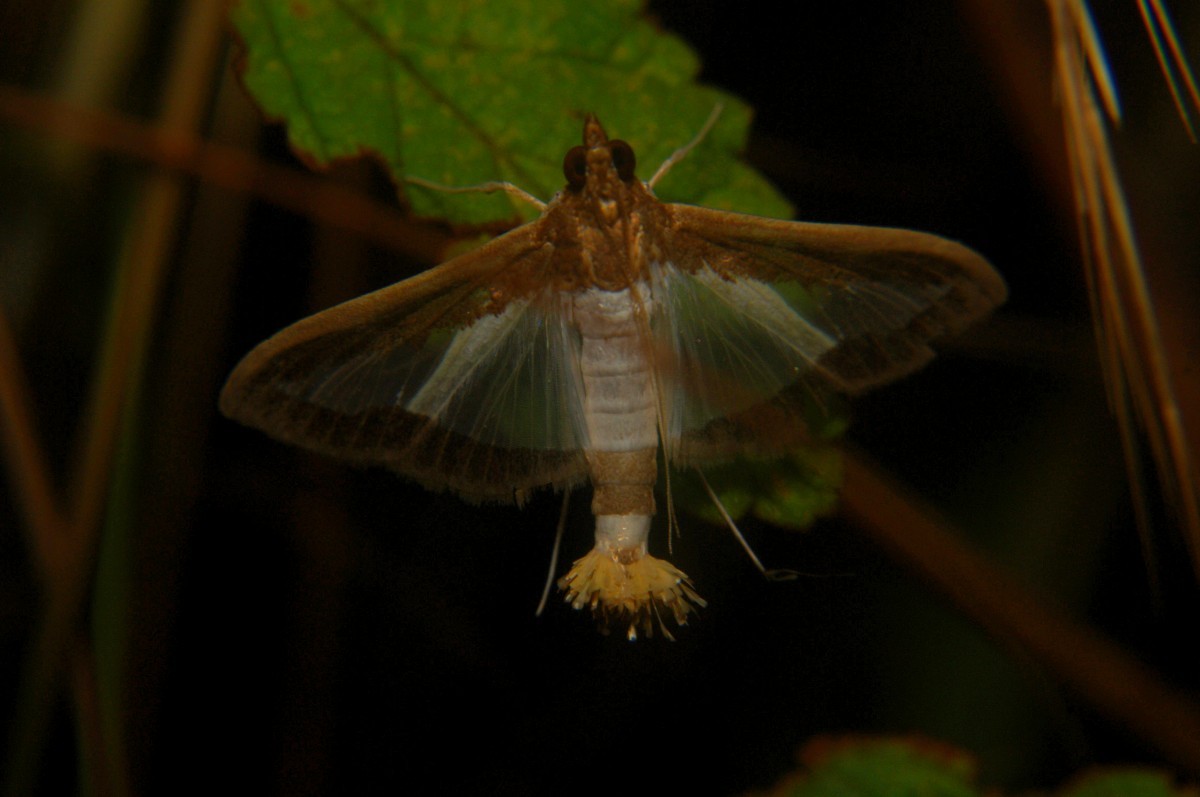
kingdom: Animalia
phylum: Arthropoda
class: Insecta
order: Lepidoptera
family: Crambidae
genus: Diaphania
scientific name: Diaphania indica
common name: Cucumber moth
